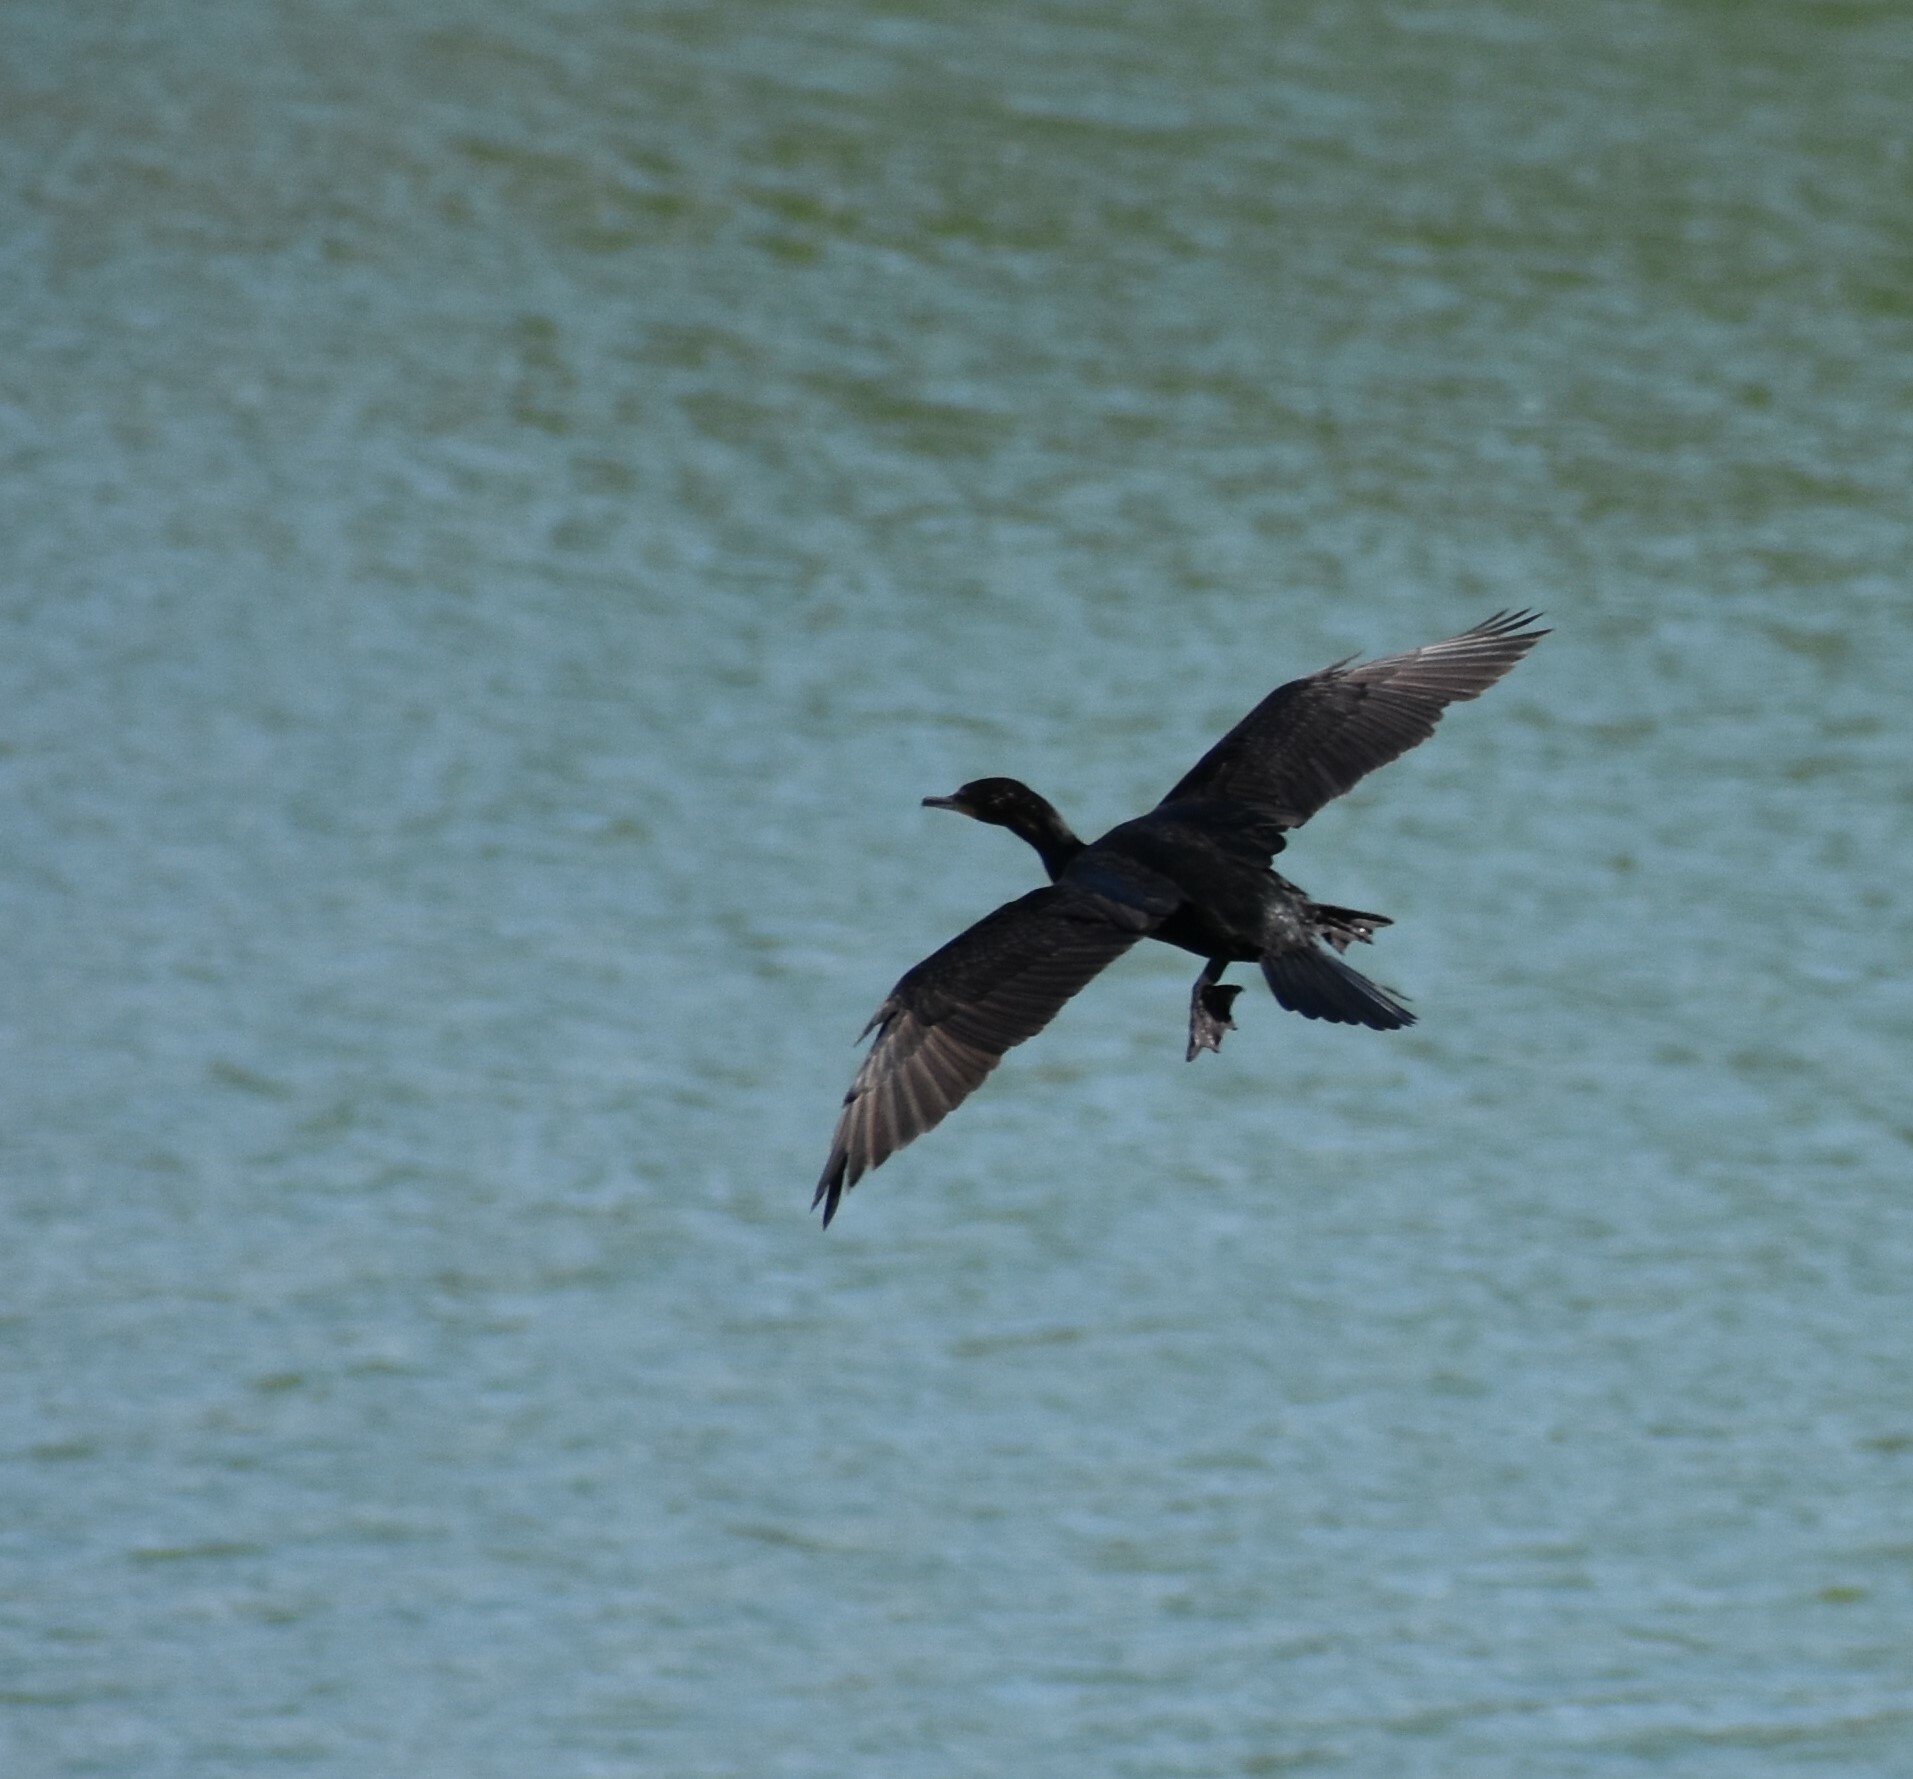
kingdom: Animalia
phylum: Chordata
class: Aves
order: Suliformes
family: Phalacrocoracidae
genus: Phalacrocorax
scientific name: Phalacrocorax brasilianus
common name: Neotropic cormorant
